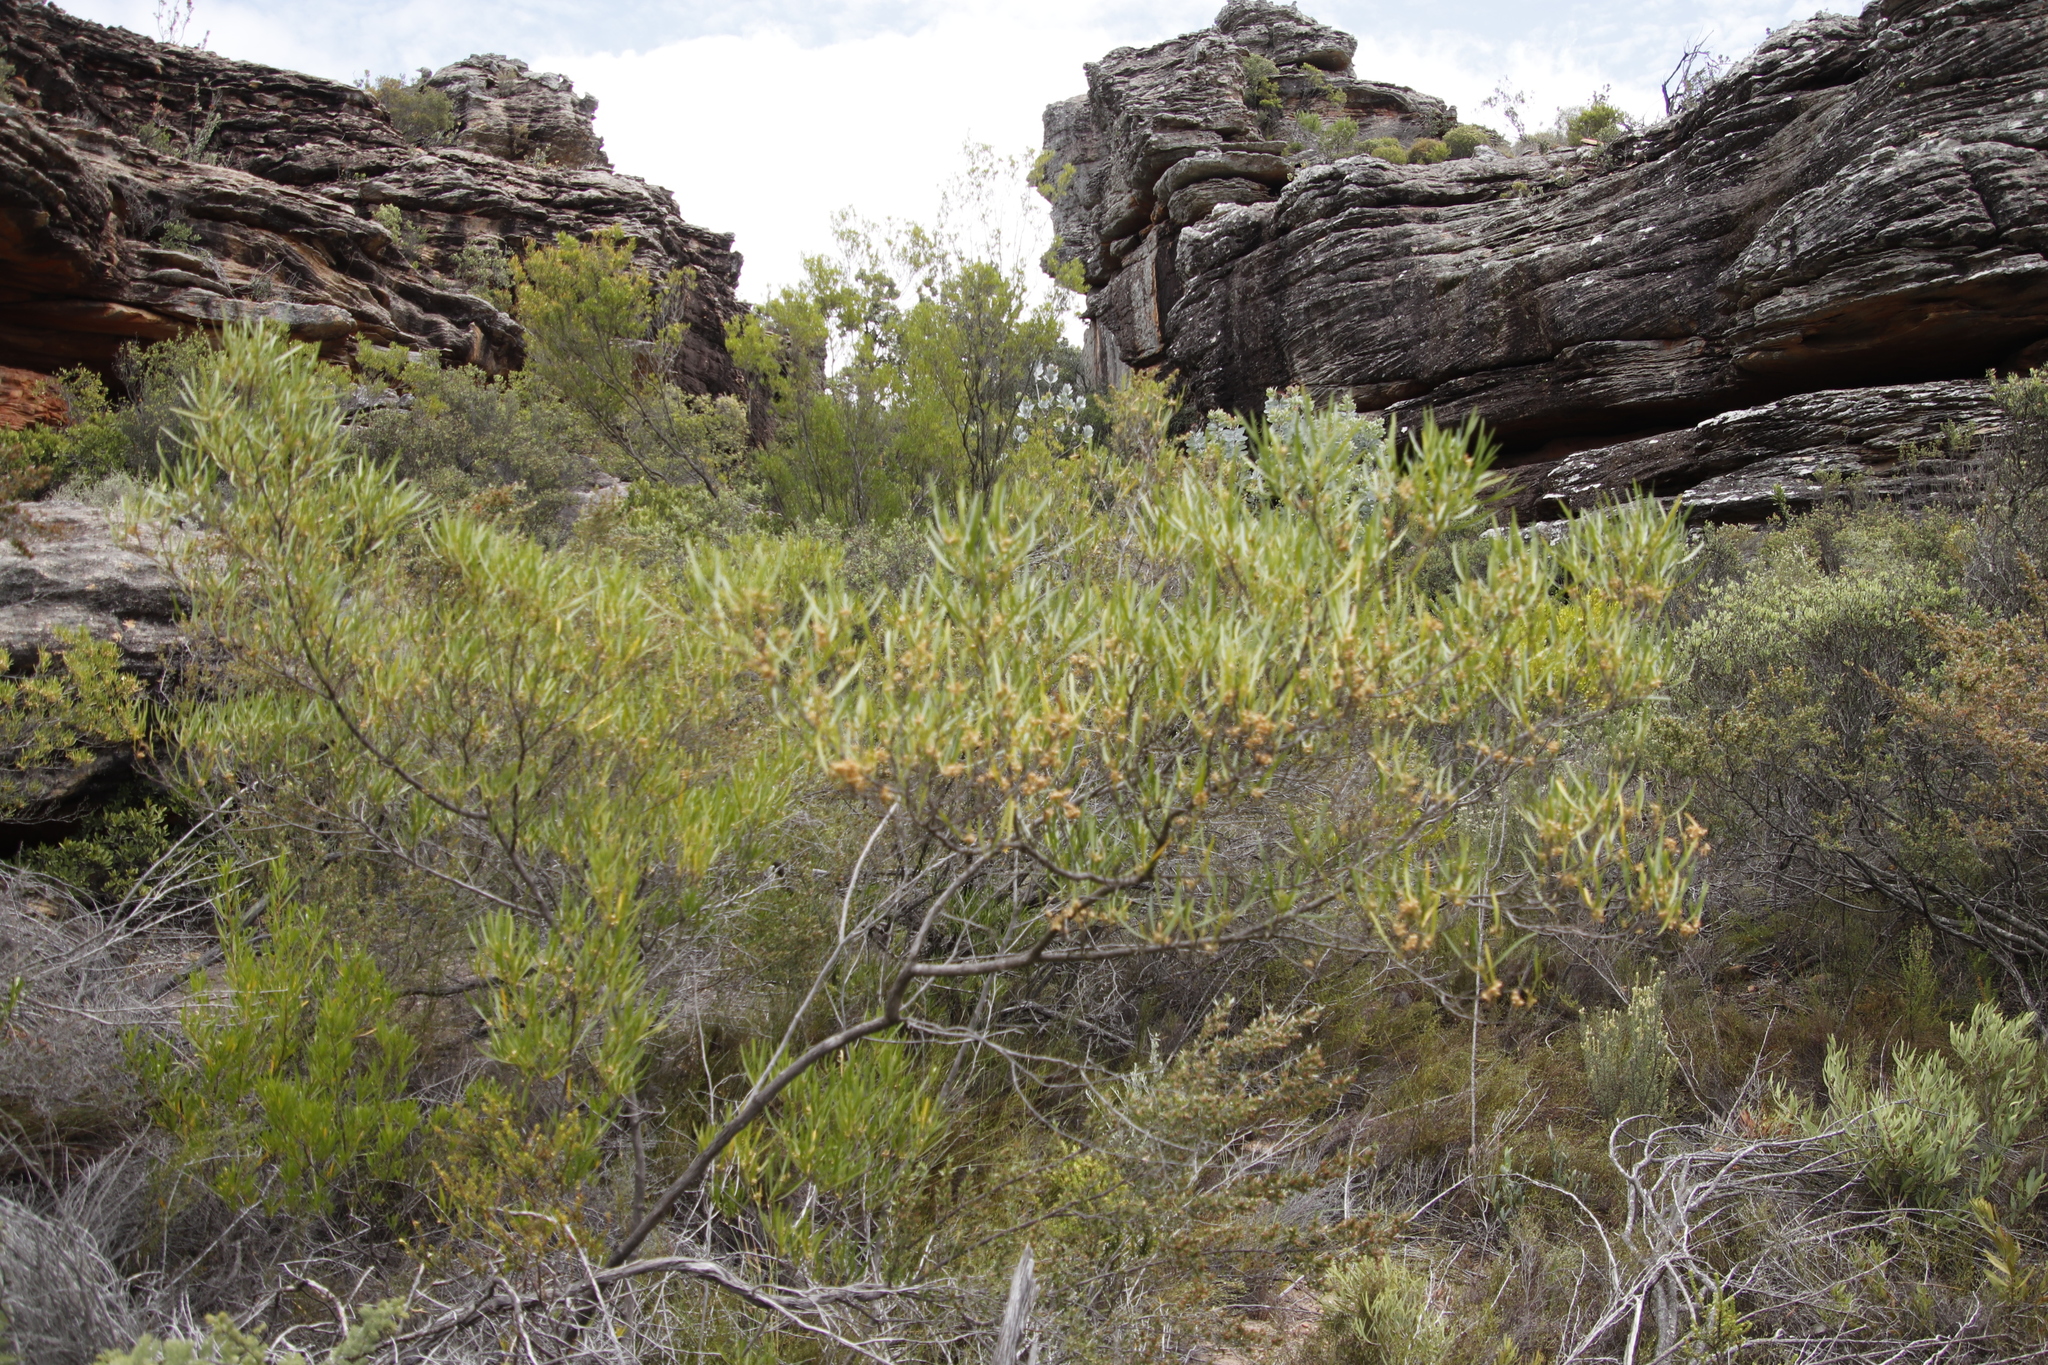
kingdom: Plantae
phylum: Tracheophyta
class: Magnoliopsida
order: Sapindales
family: Sapindaceae
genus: Dodonaea
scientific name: Dodonaea viscosa
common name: Hopbush
